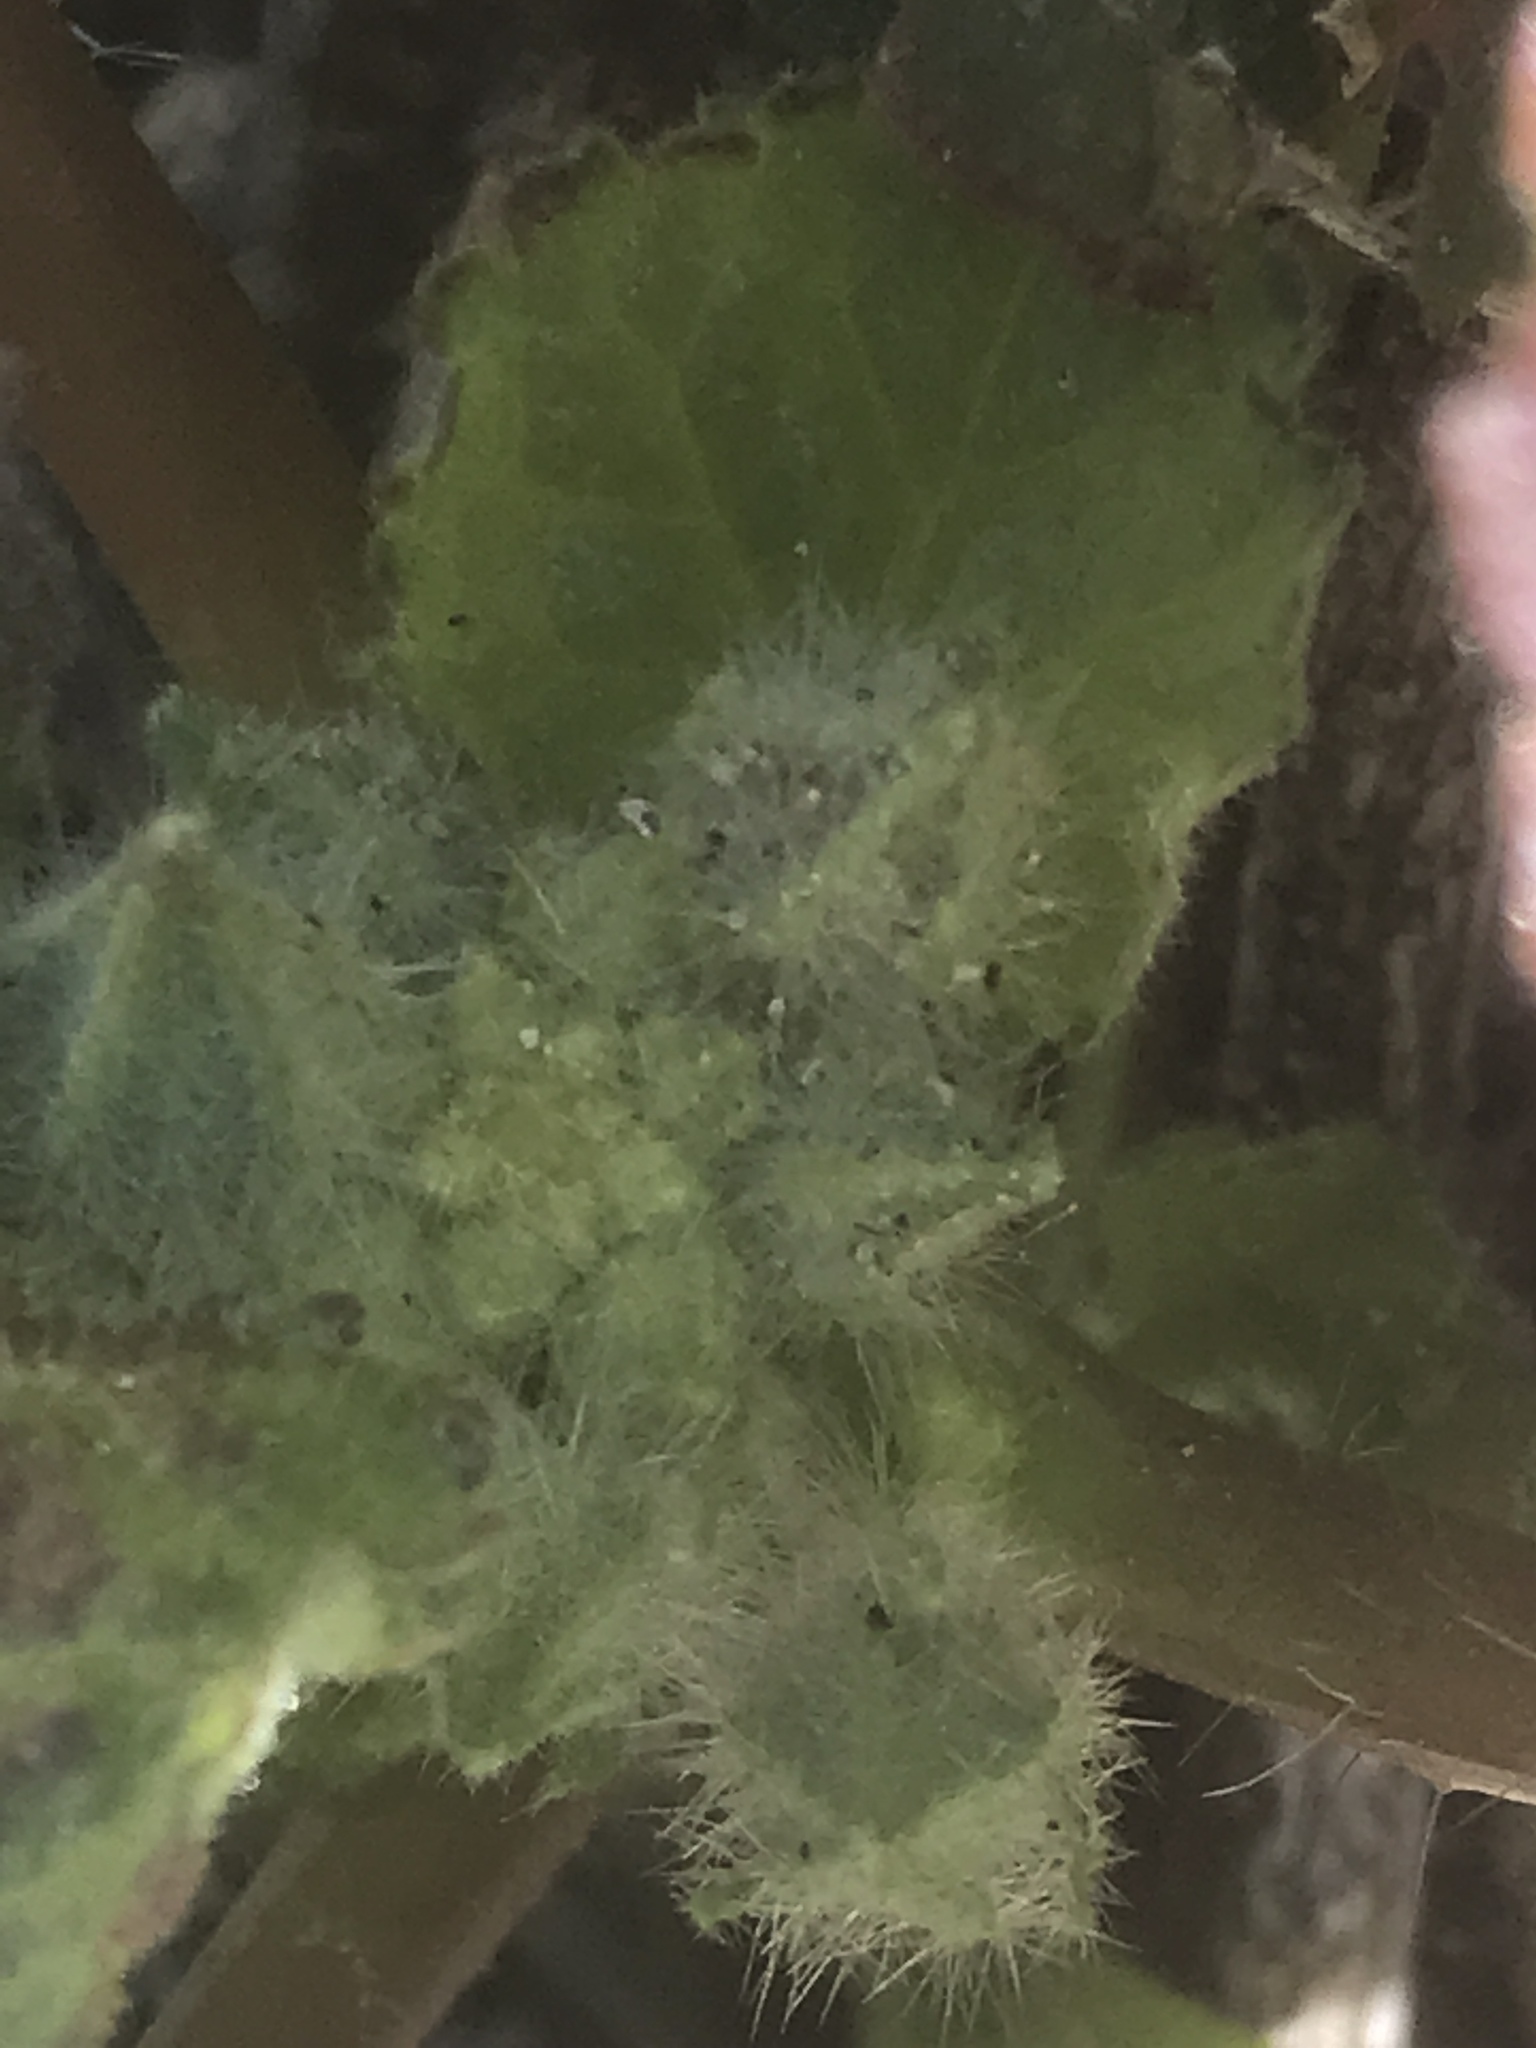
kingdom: Plantae
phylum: Tracheophyta
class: Magnoliopsida
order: Malvales
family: Malvaceae
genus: Eremalche
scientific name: Eremalche rotundifolia
